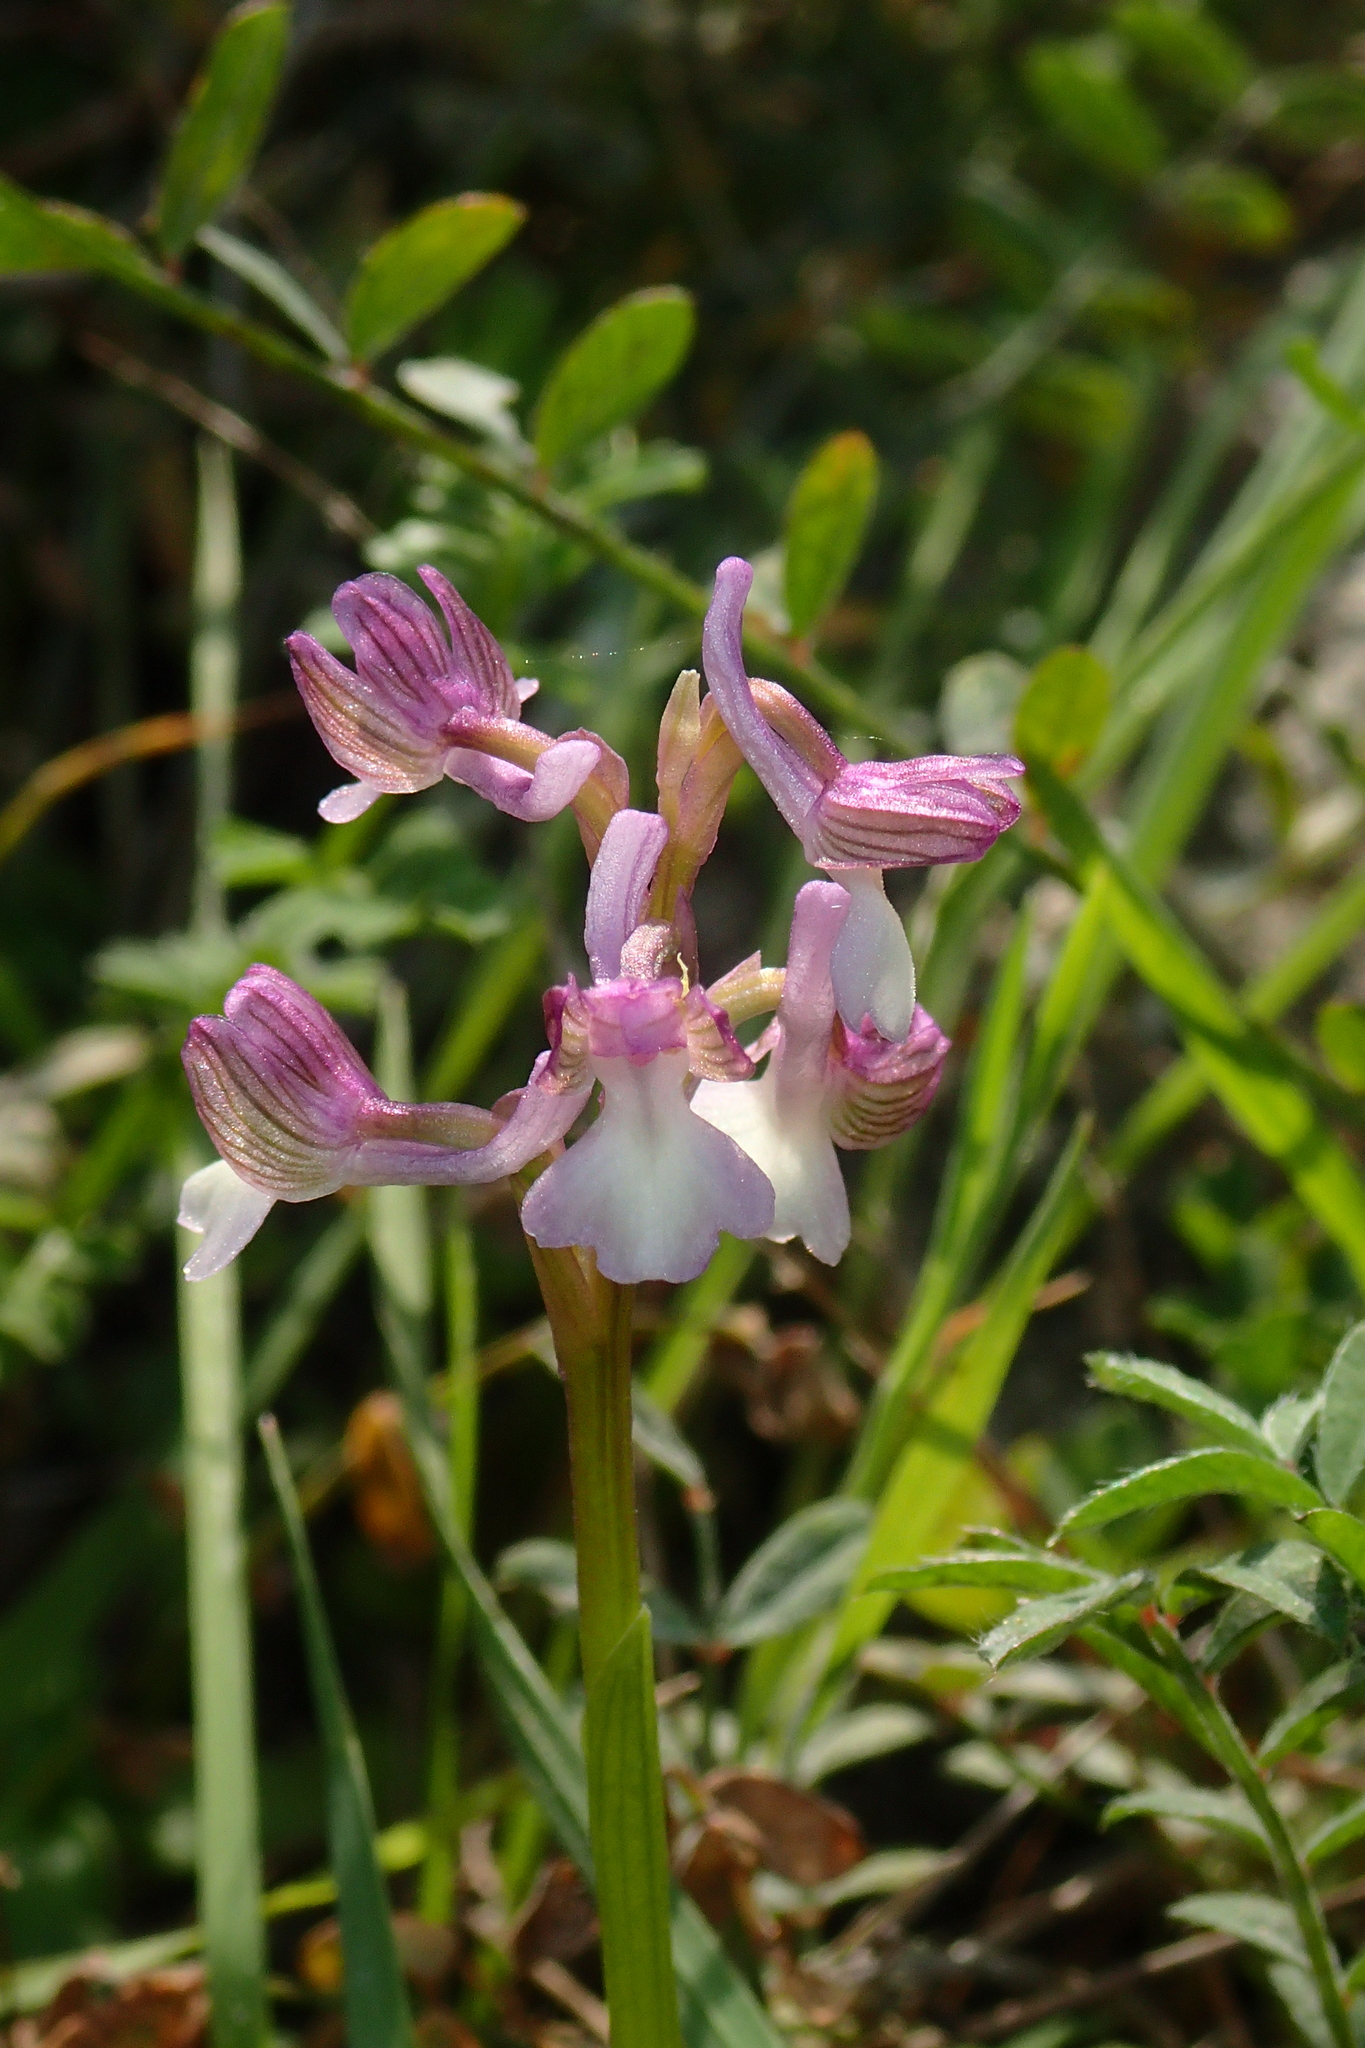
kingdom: Plantae
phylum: Tracheophyta
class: Liliopsida
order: Asparagales
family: Orchidaceae
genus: Anacamptis
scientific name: Anacamptis morio
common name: Green-winged orchid
